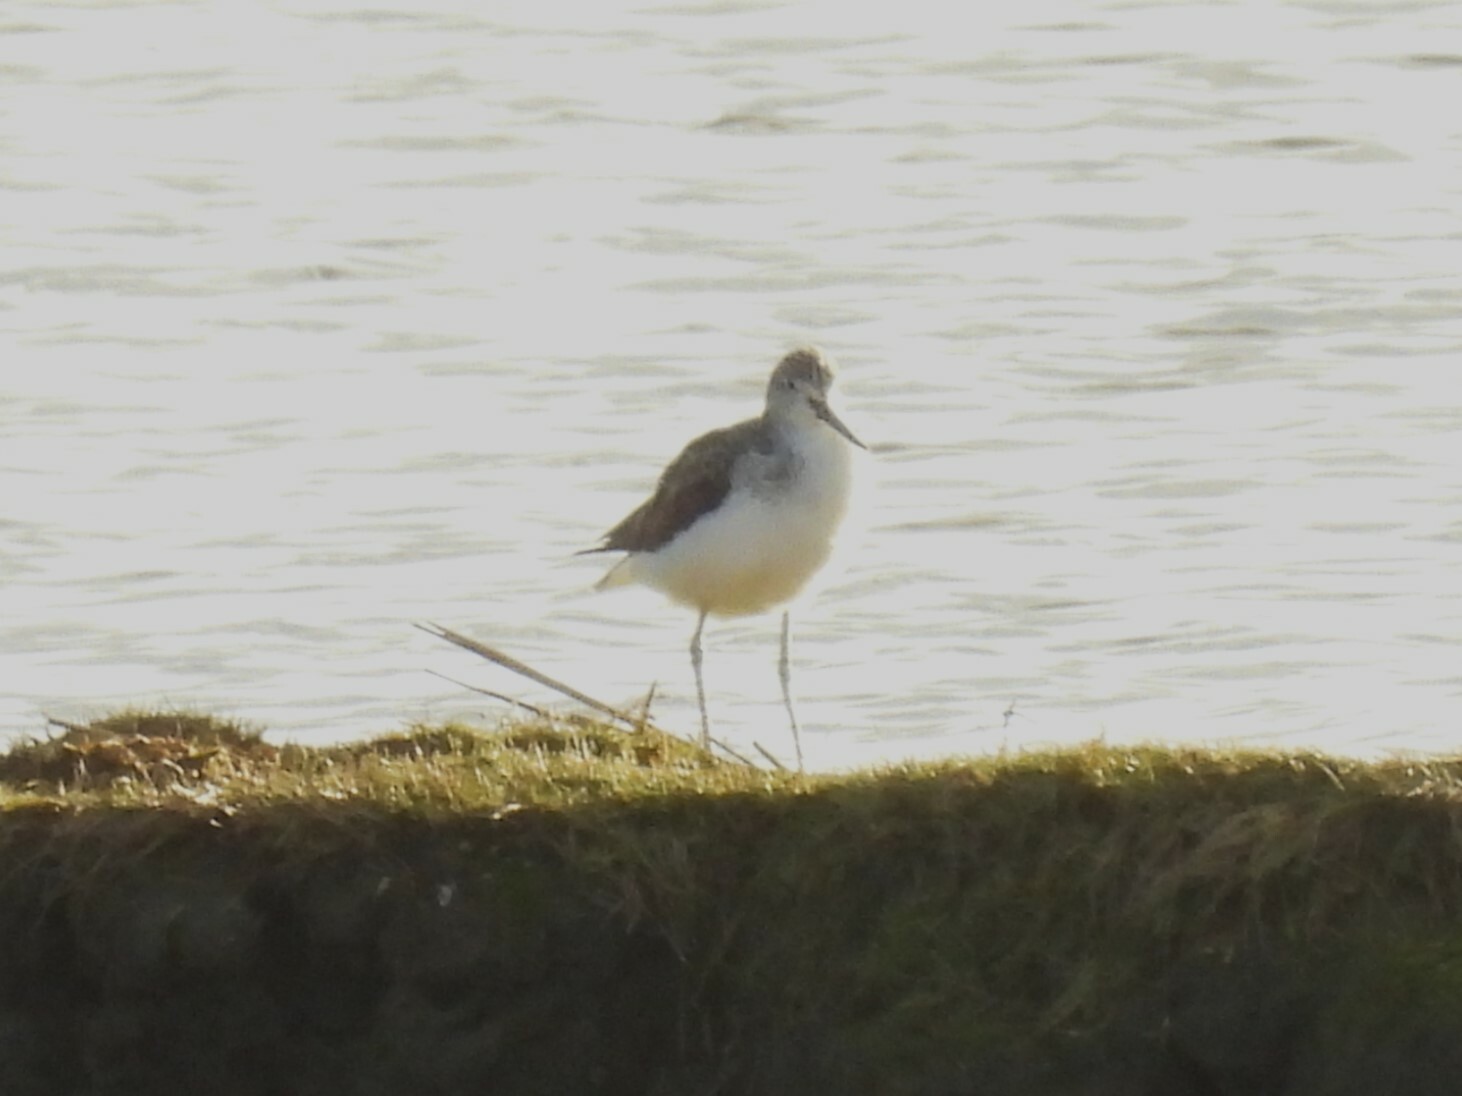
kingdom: Animalia
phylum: Chordata
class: Aves
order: Charadriiformes
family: Scolopacidae
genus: Tringa
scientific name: Tringa nebularia
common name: Common greenshank
